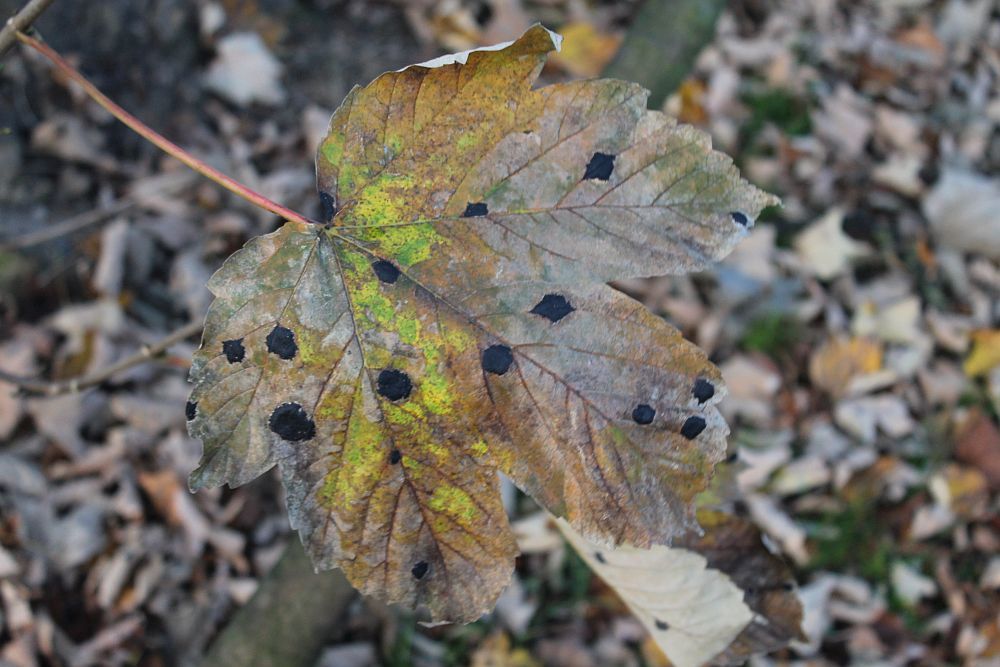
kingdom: Fungi
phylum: Ascomycota
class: Leotiomycetes
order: Rhytismatales
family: Rhytismataceae
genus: Rhytisma
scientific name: Rhytisma acerinum
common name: European tar spot
